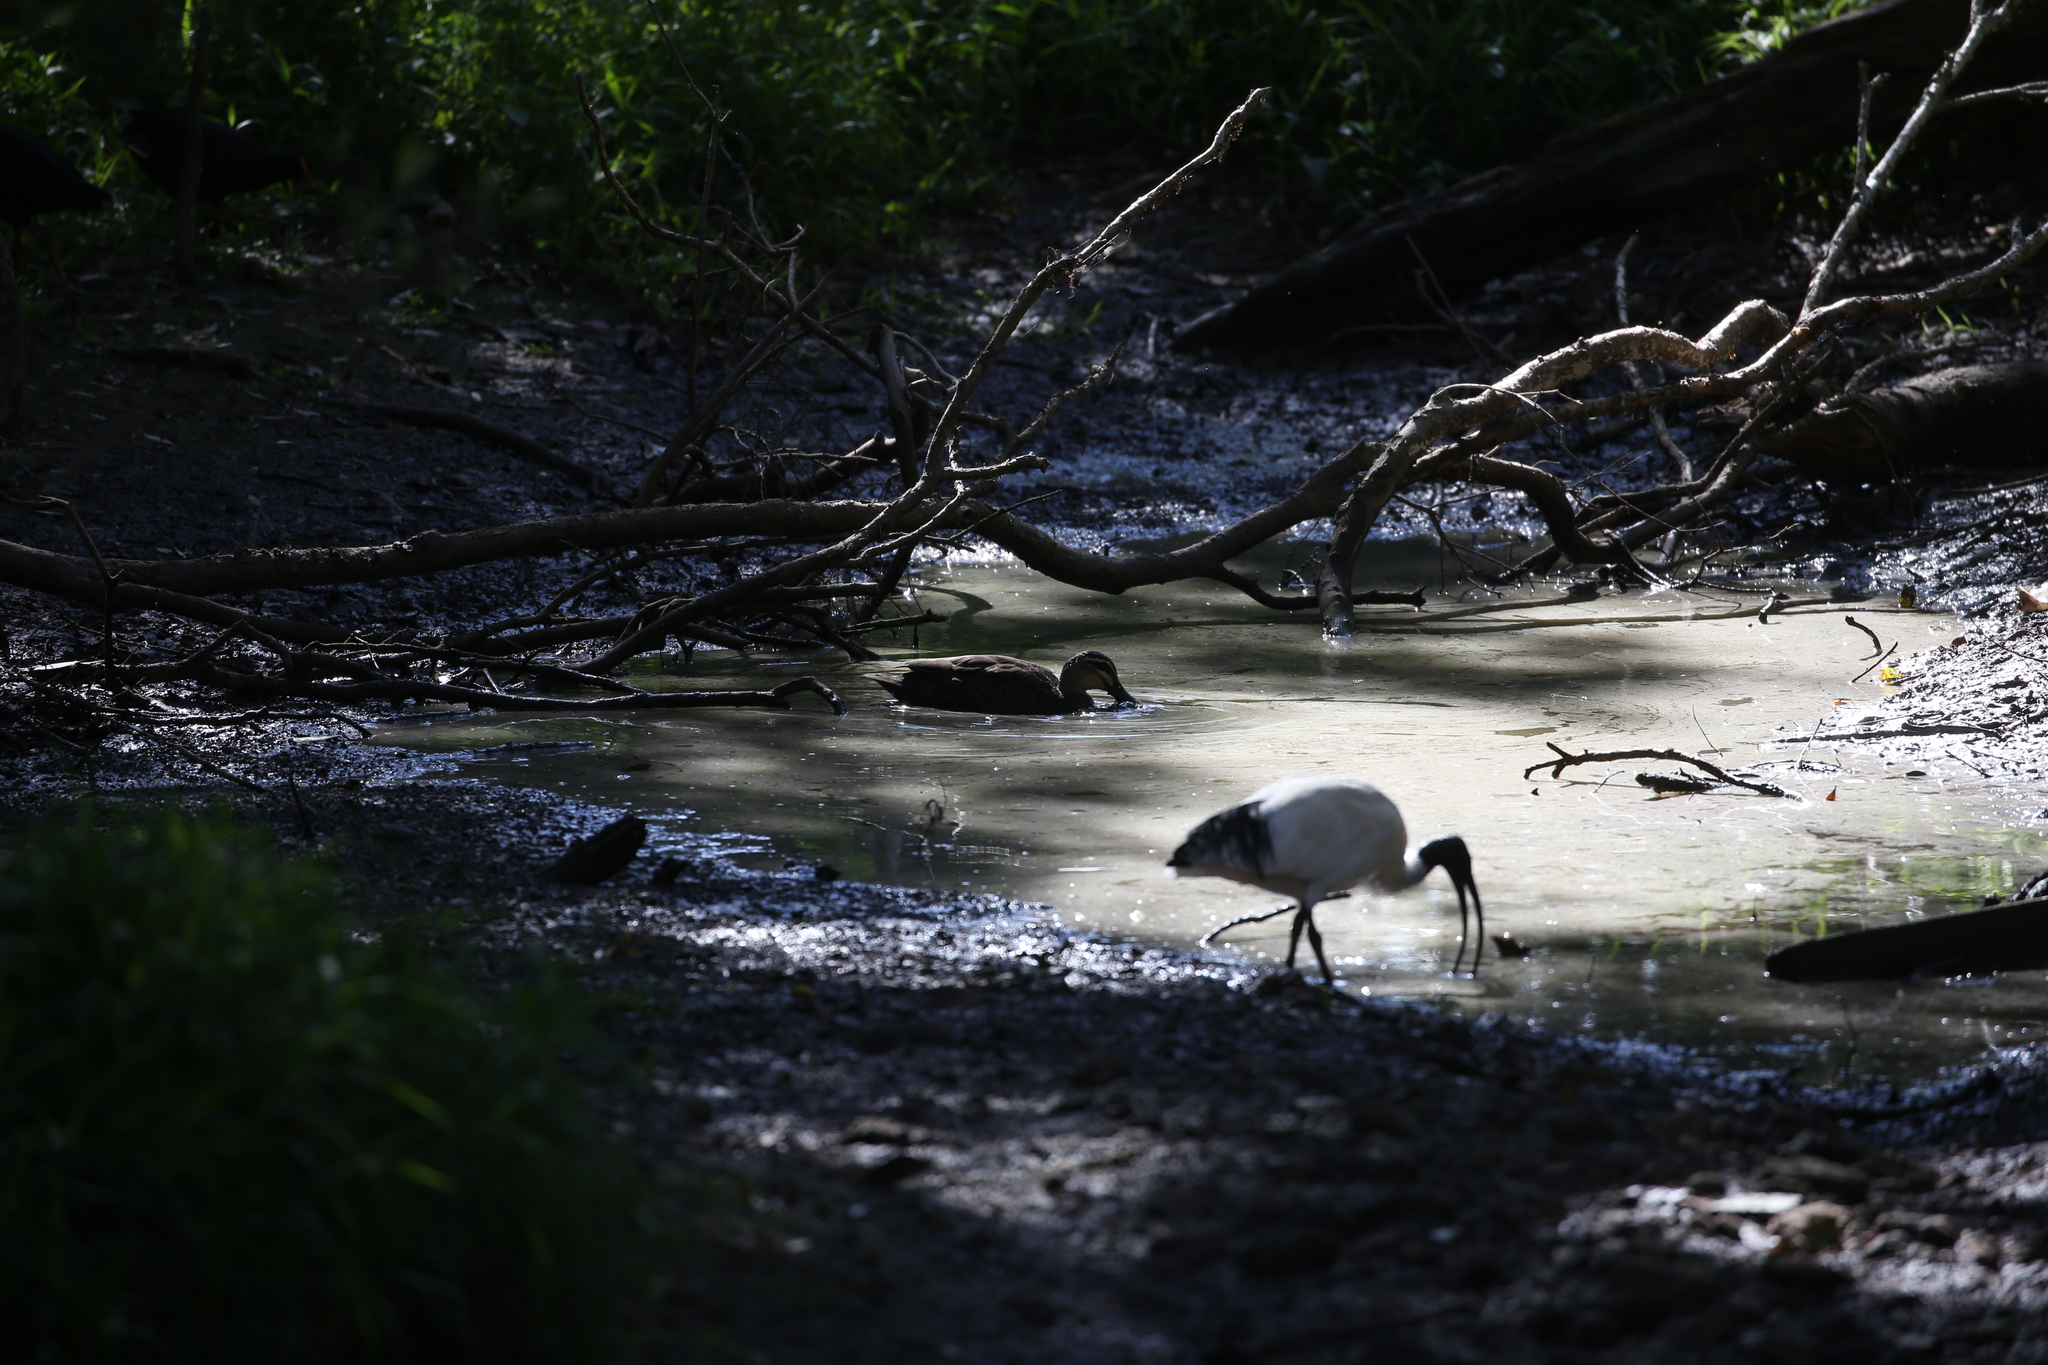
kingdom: Animalia
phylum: Chordata
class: Aves
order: Anseriformes
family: Anatidae
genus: Anas
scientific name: Anas superciliosa
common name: Pacific black duck
